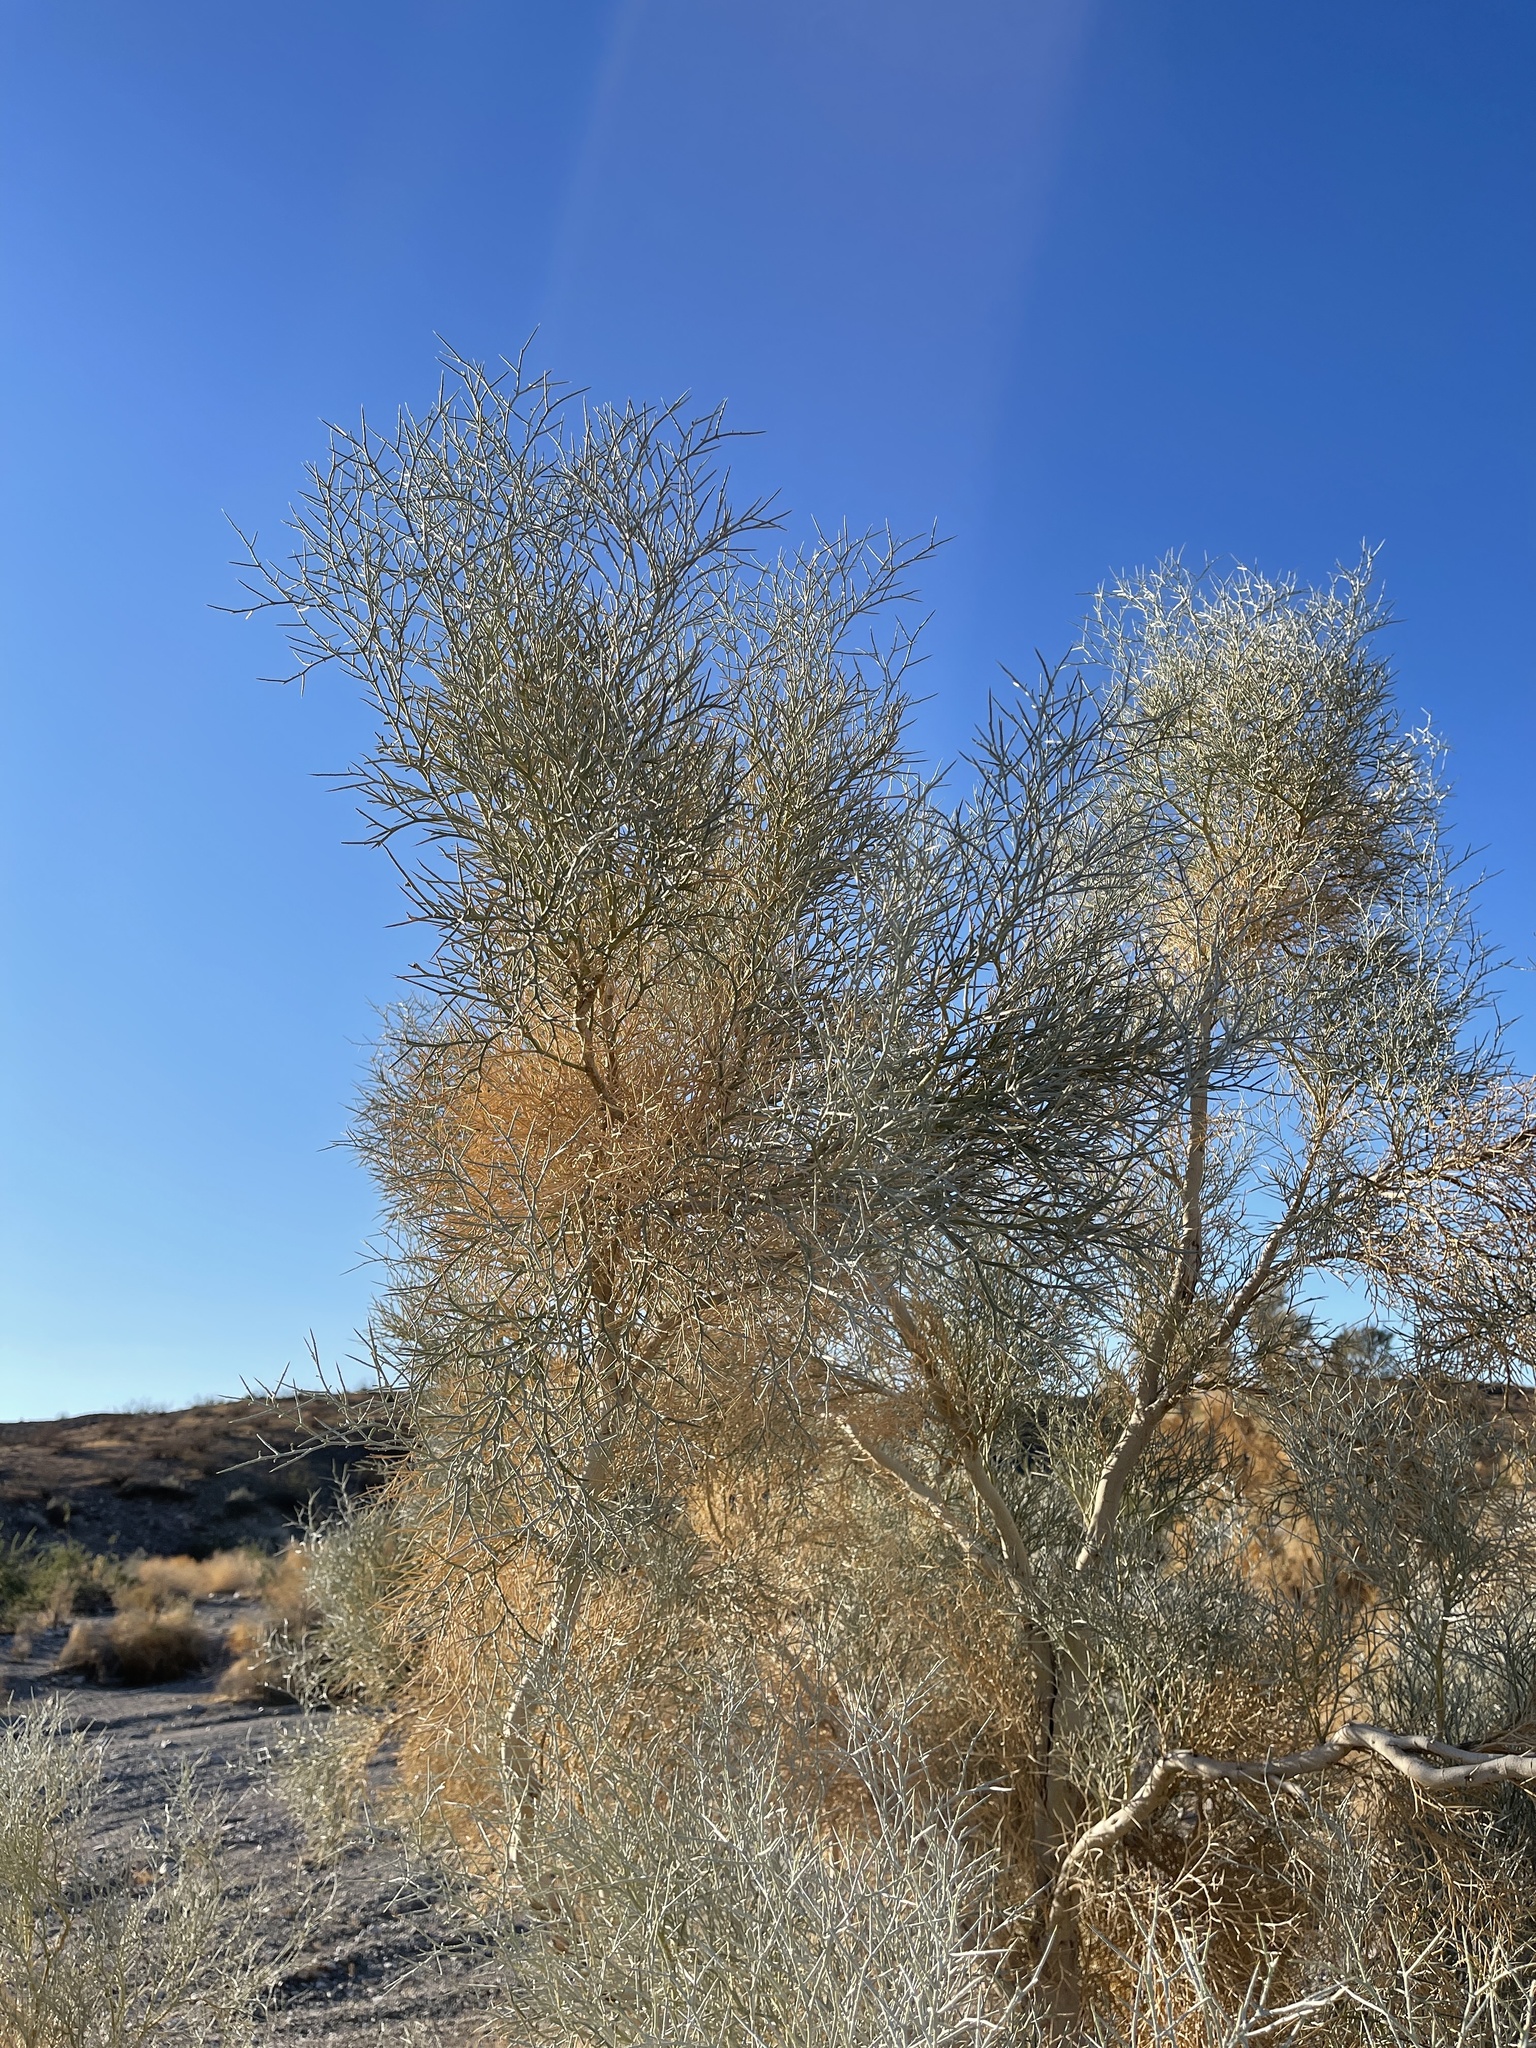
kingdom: Plantae
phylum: Tracheophyta
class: Magnoliopsida
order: Fabales
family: Fabaceae
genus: Psorothamnus
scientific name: Psorothamnus spinosus
